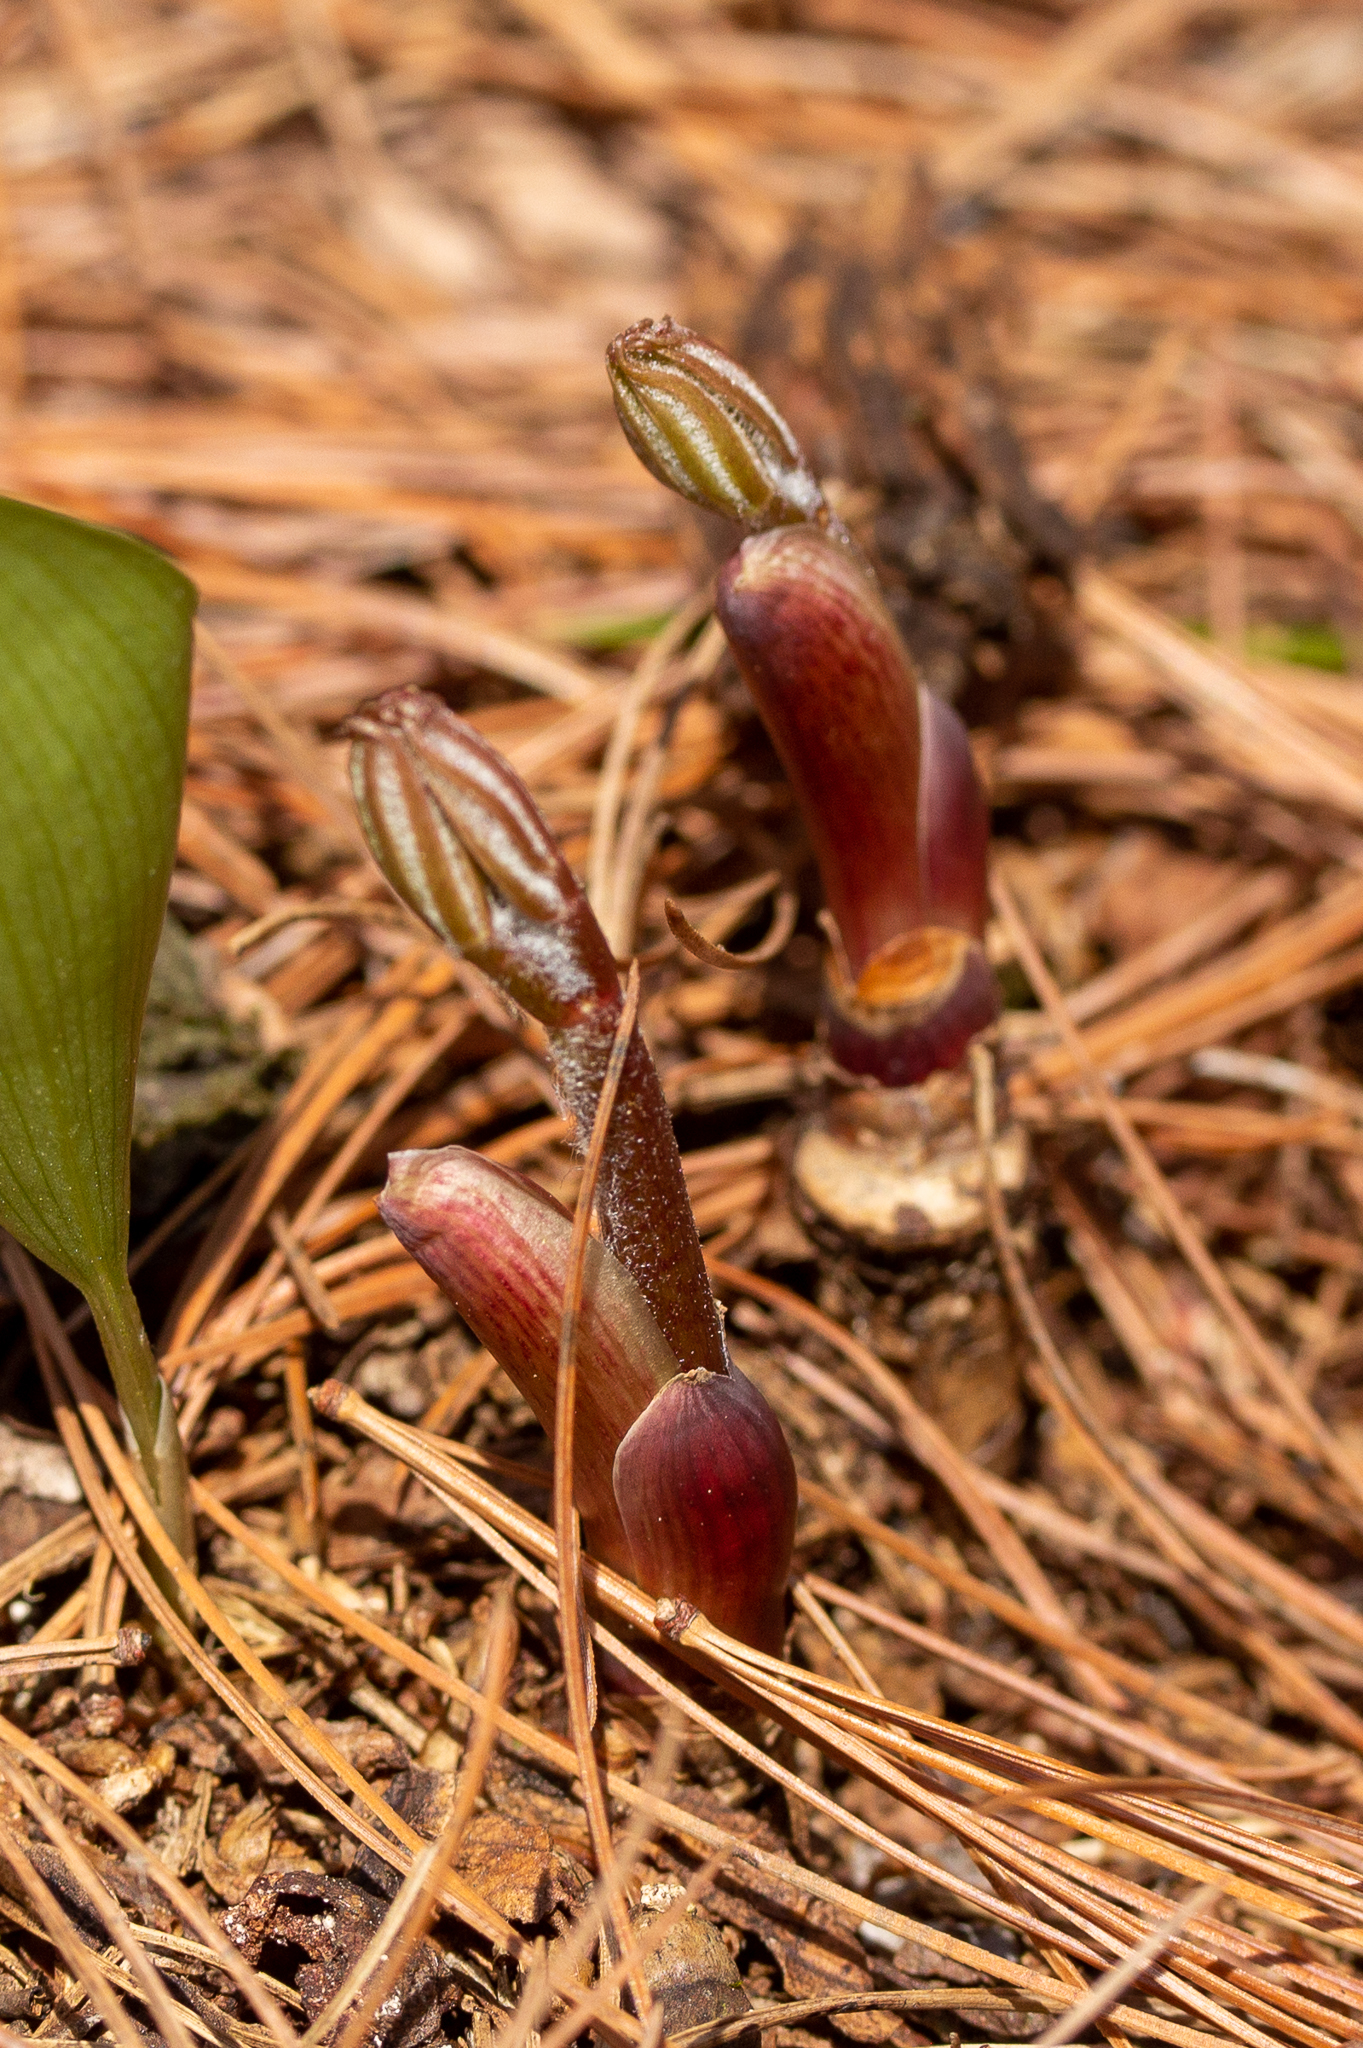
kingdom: Plantae
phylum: Tracheophyta
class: Magnoliopsida
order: Apiales
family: Araliaceae
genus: Aralia
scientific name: Aralia nudicaulis
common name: Wild sarsaparilla
